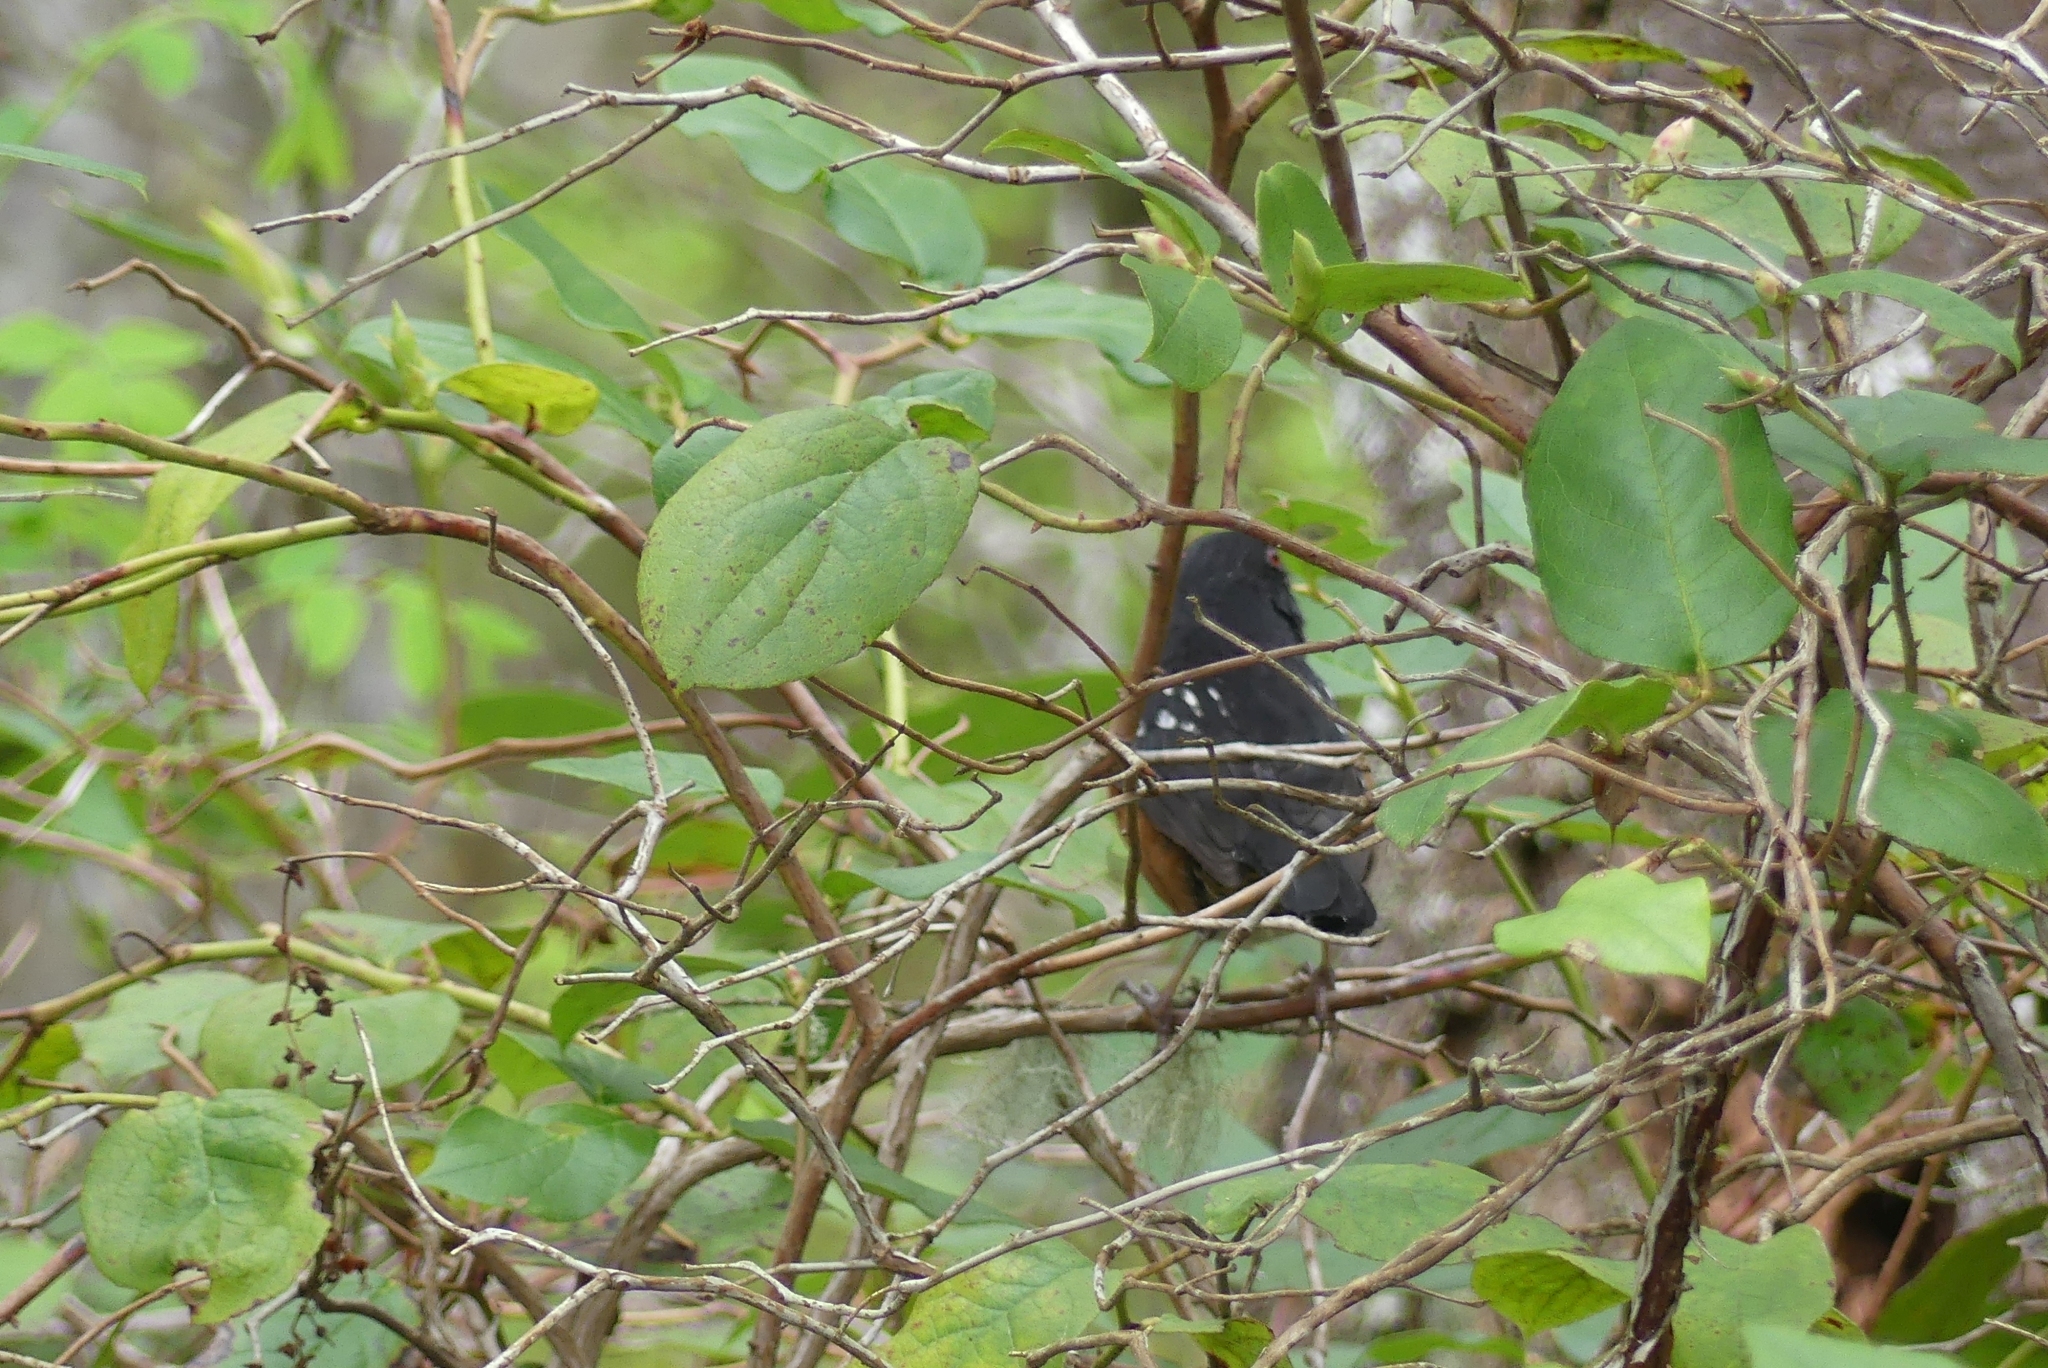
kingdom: Animalia
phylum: Chordata
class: Aves
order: Passeriformes
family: Passerellidae
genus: Pipilo
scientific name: Pipilo maculatus
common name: Spotted towhee
